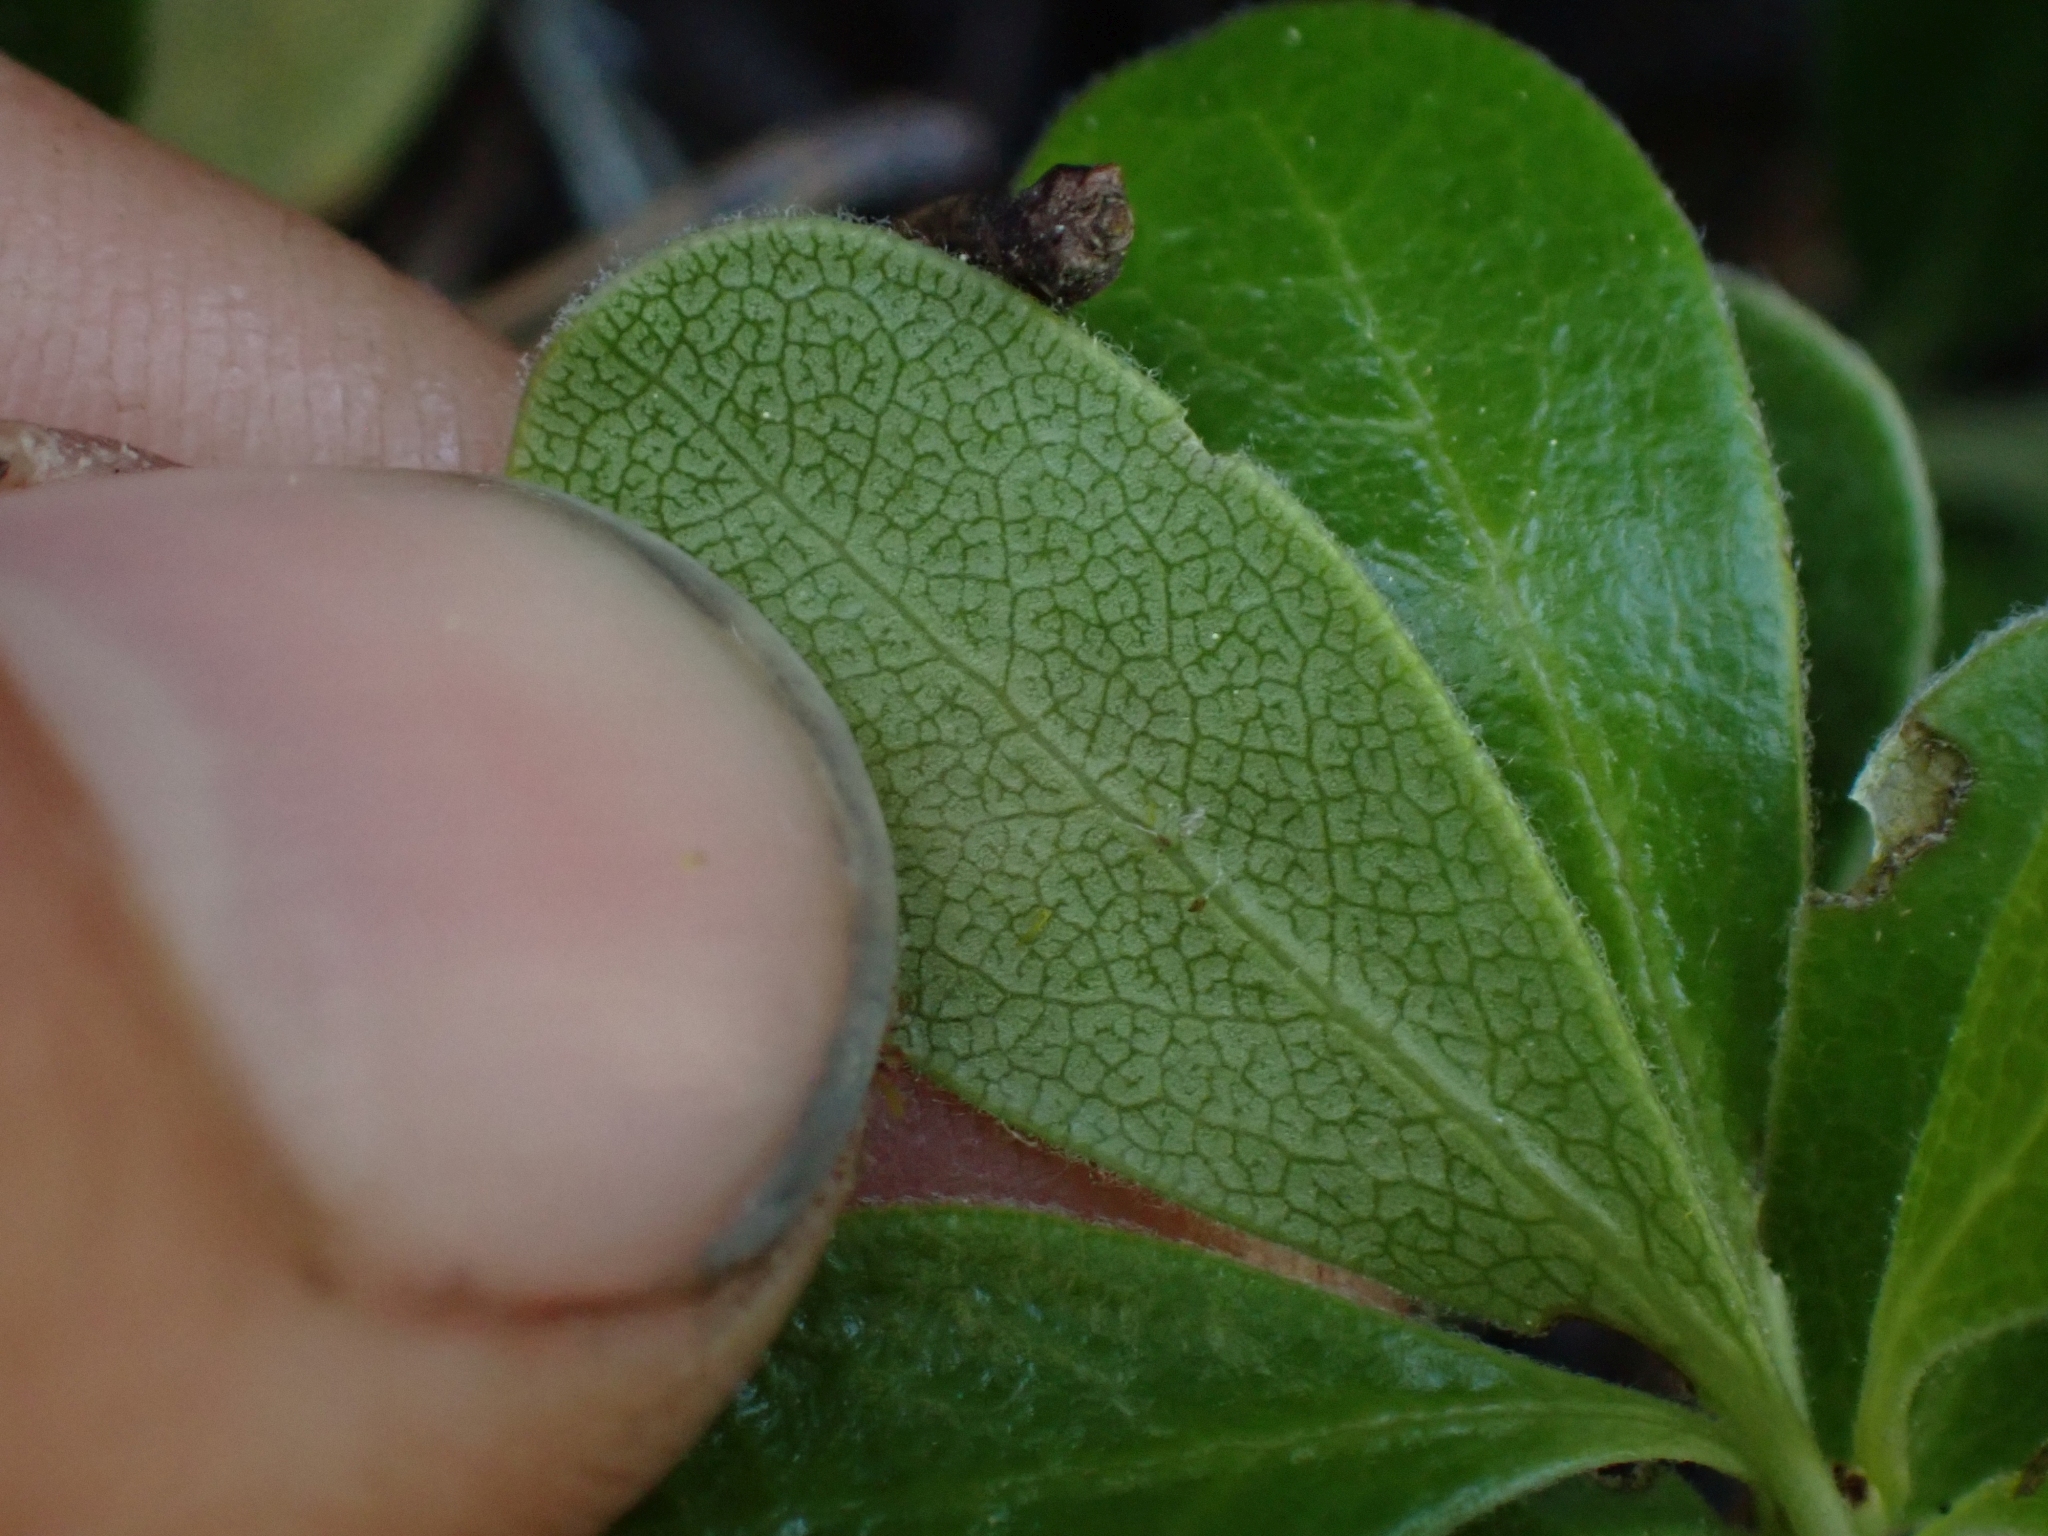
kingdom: Plantae
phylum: Tracheophyta
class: Magnoliopsida
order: Ericales
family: Ericaceae
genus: Arctostaphylos
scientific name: Arctostaphylos uva-ursi
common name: Bearberry
